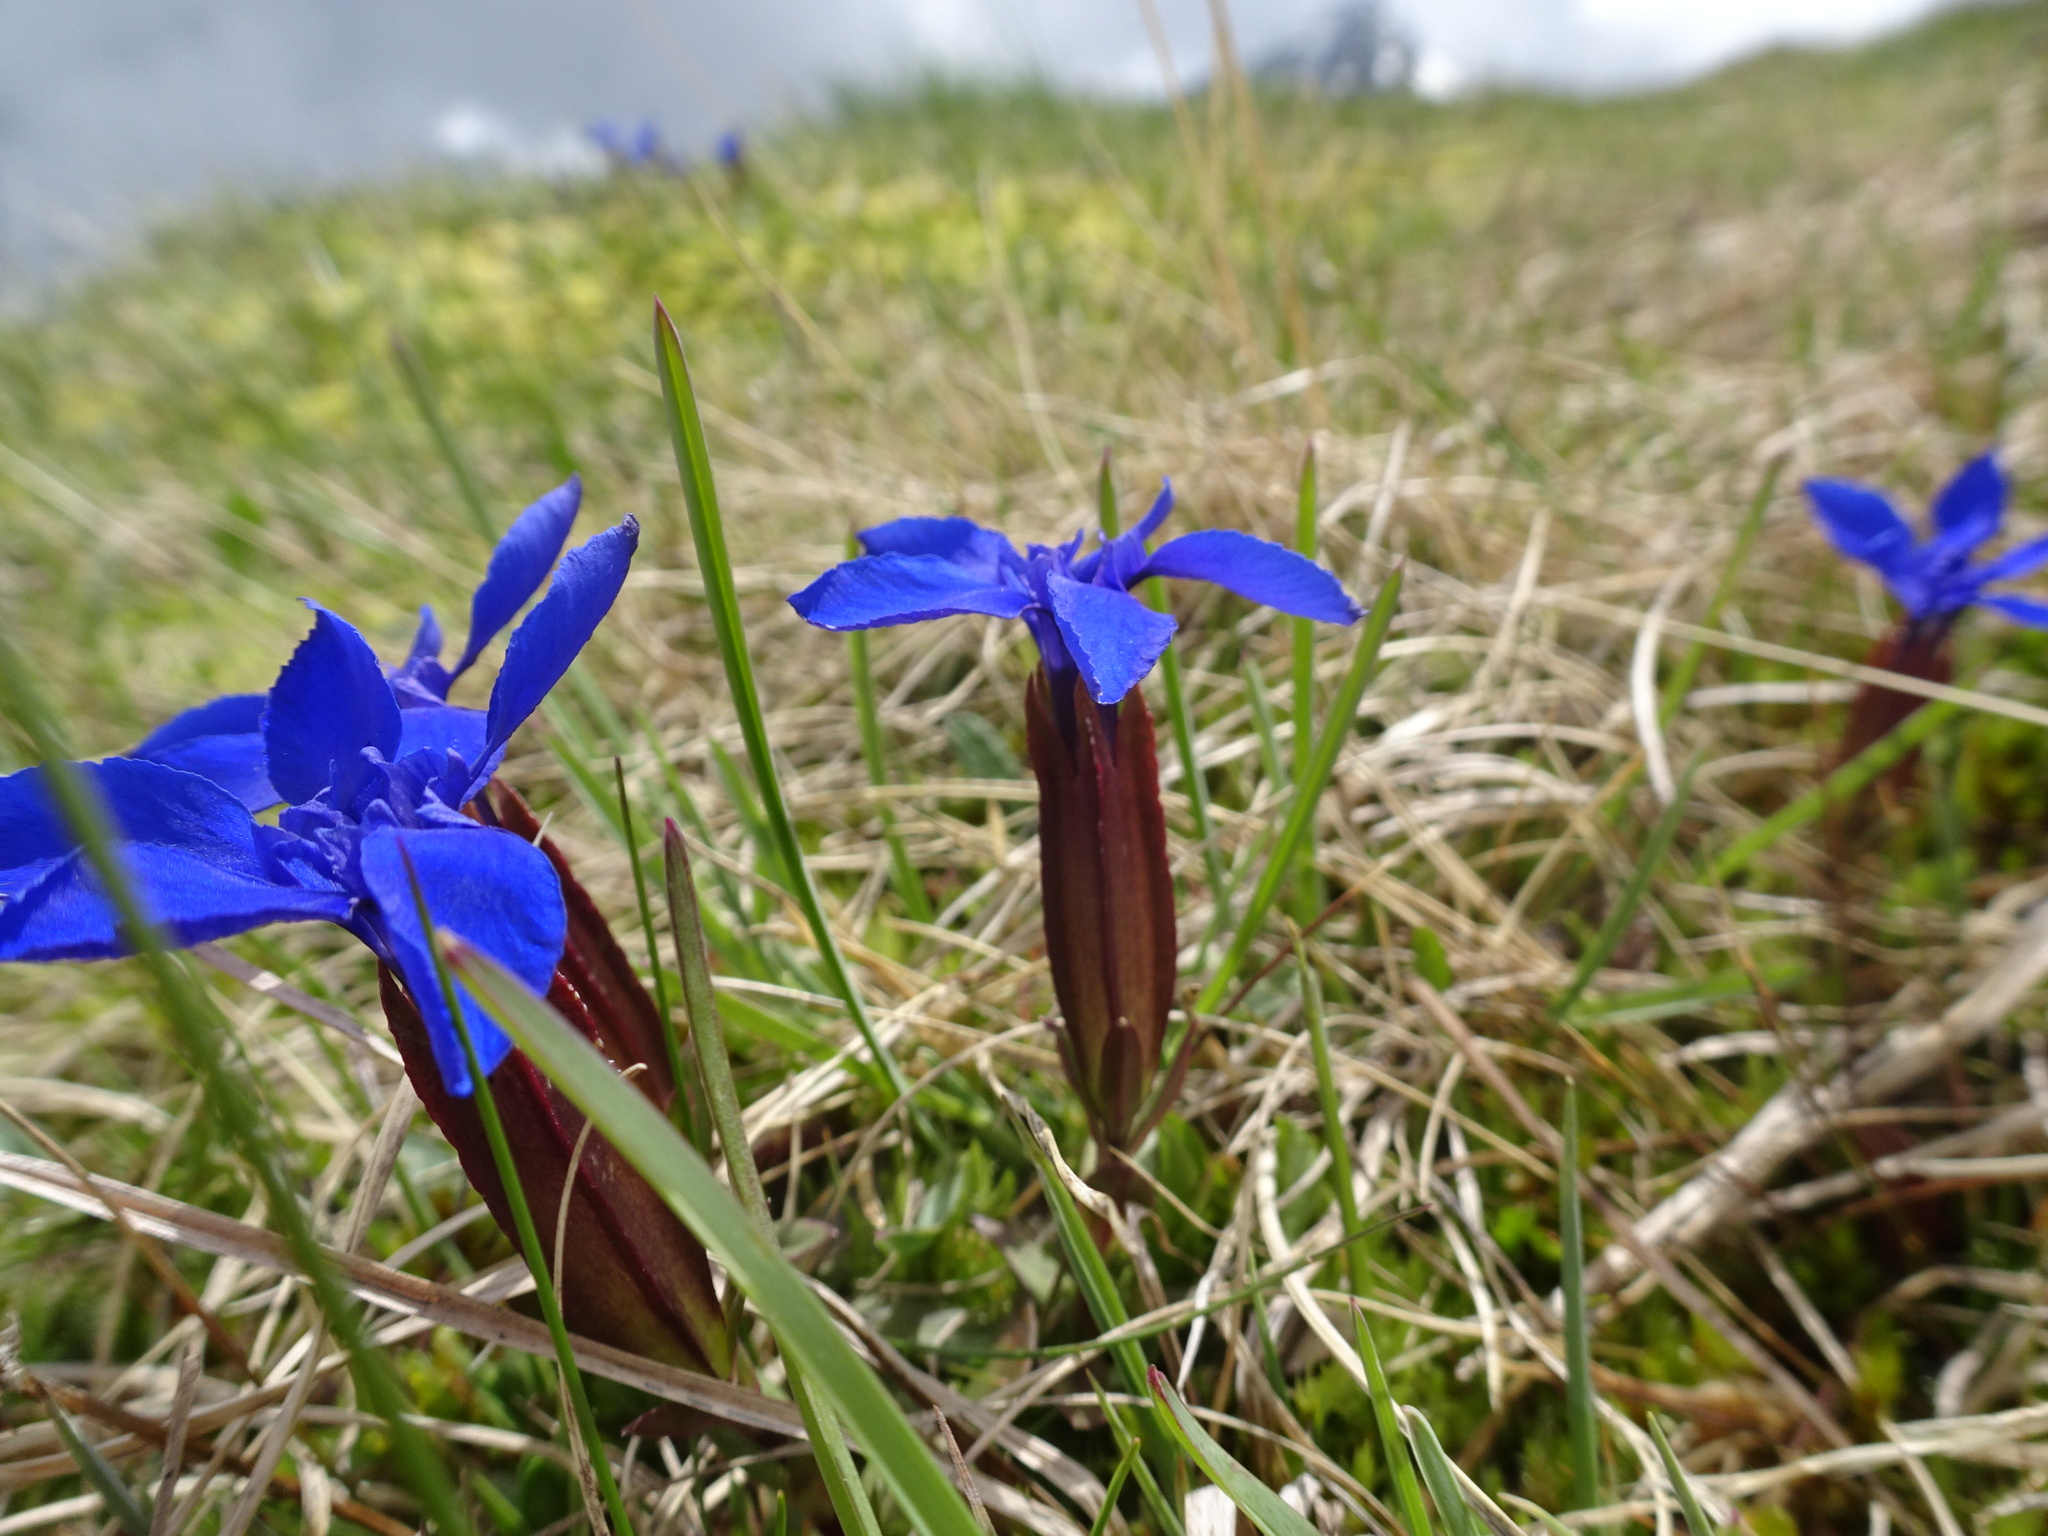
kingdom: Plantae
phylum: Tracheophyta
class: Magnoliopsida
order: Gentianales
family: Gentianaceae
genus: Gentiana
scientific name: Gentiana verna
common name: Spring gentian
